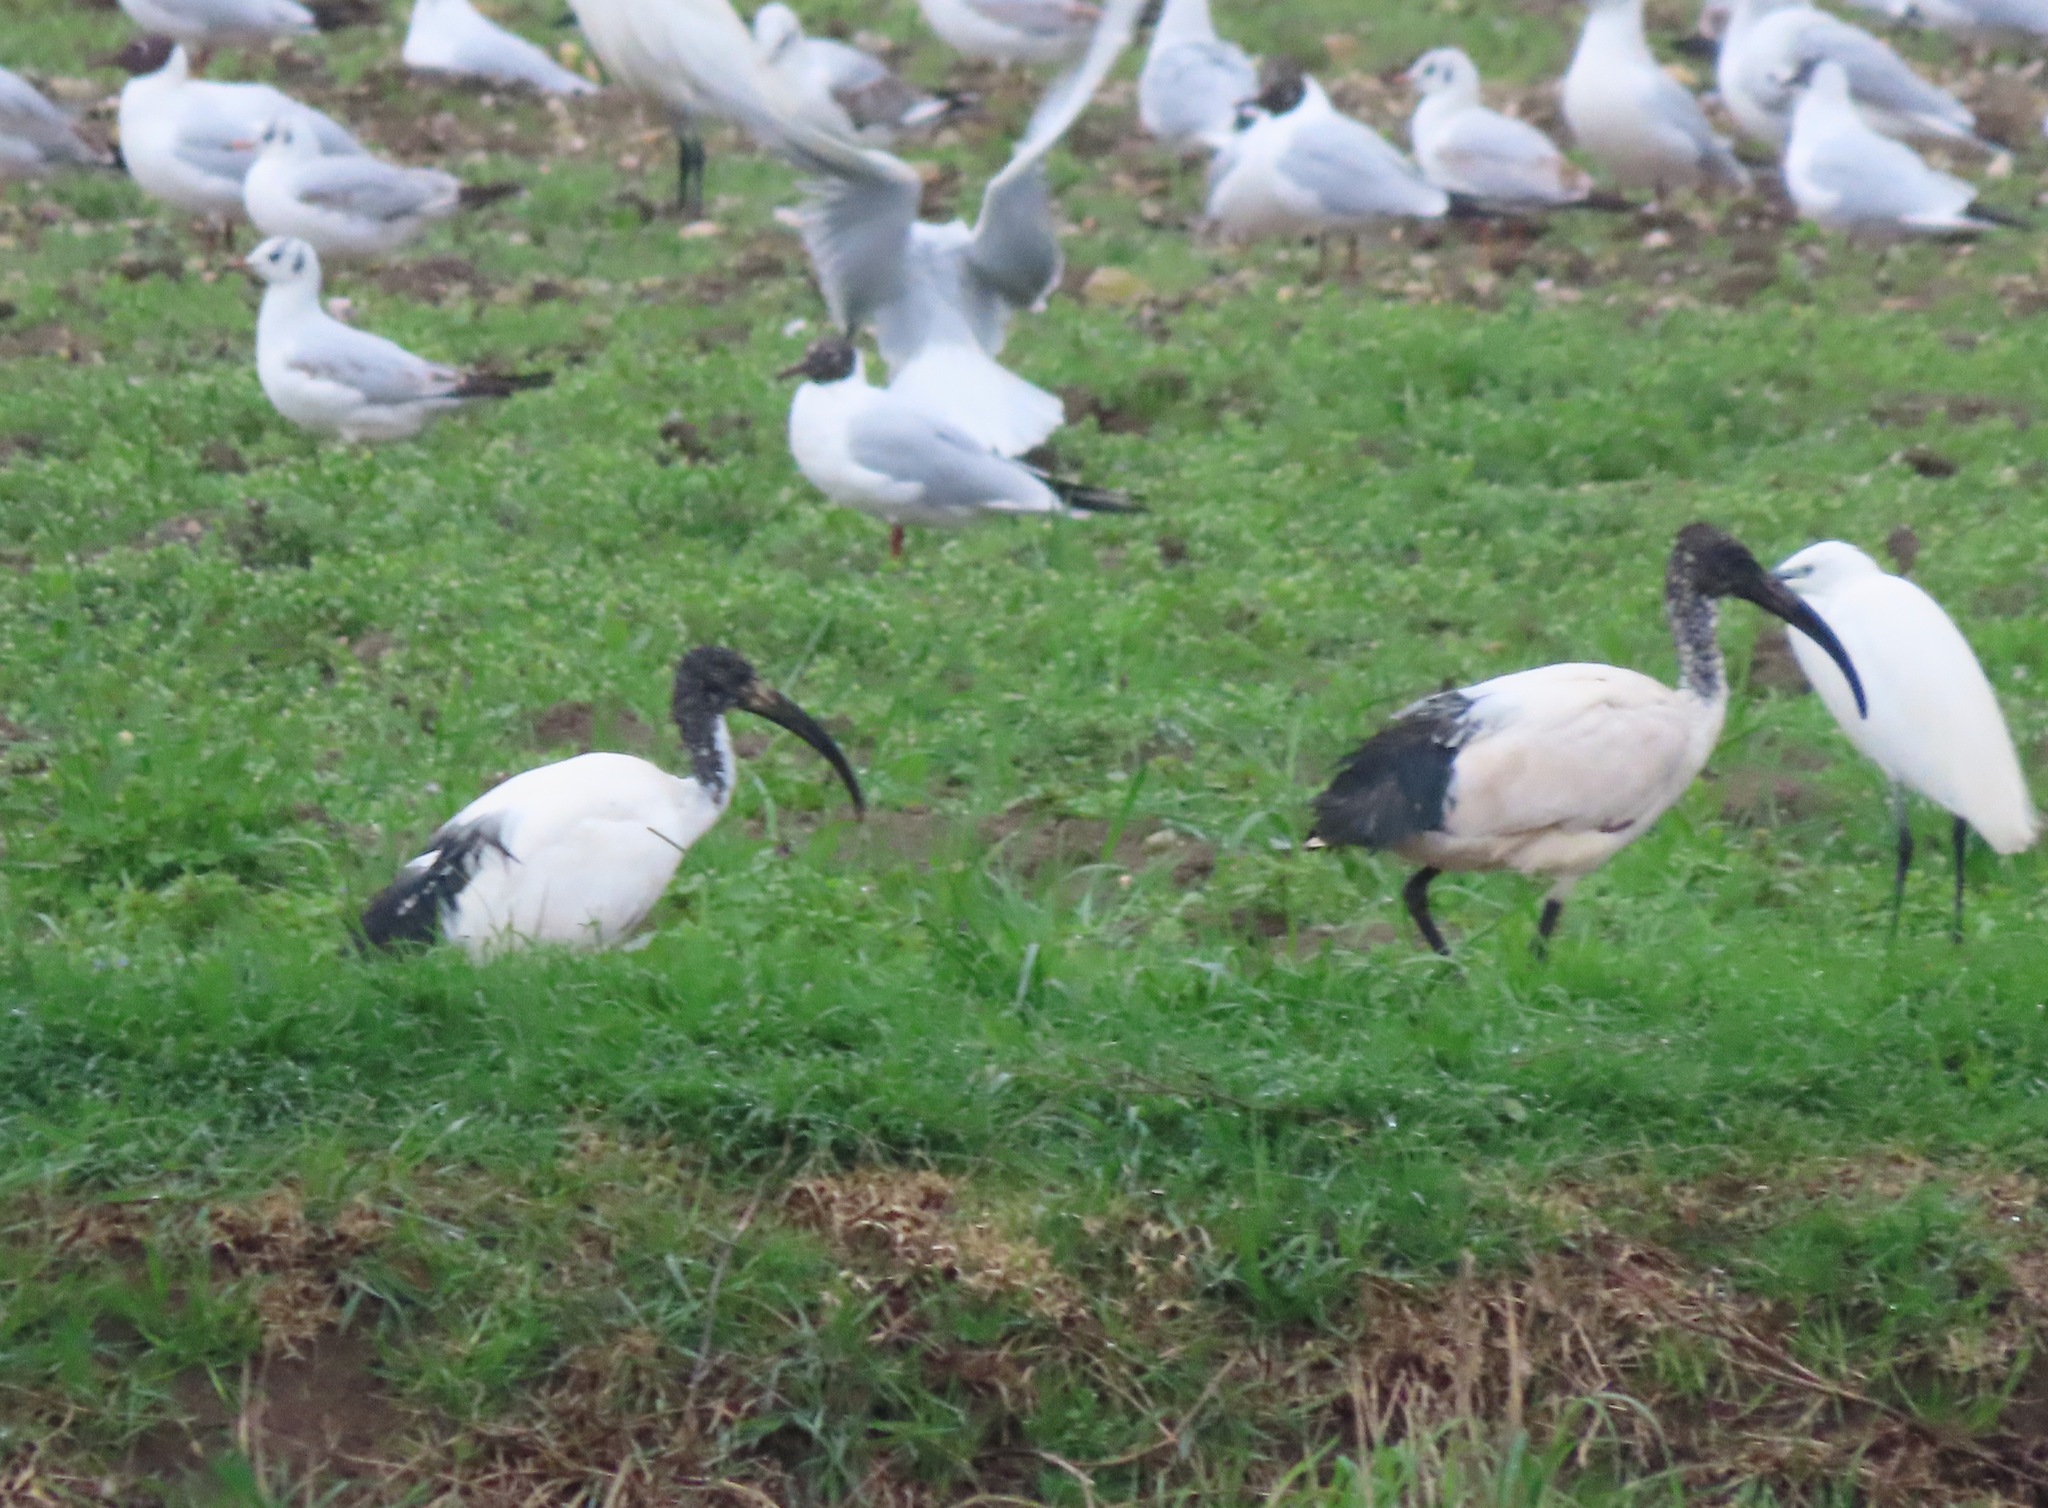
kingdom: Animalia
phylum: Chordata
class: Aves
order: Pelecaniformes
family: Threskiornithidae
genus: Threskiornis
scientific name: Threskiornis aethiopicus
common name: Sacred ibis
